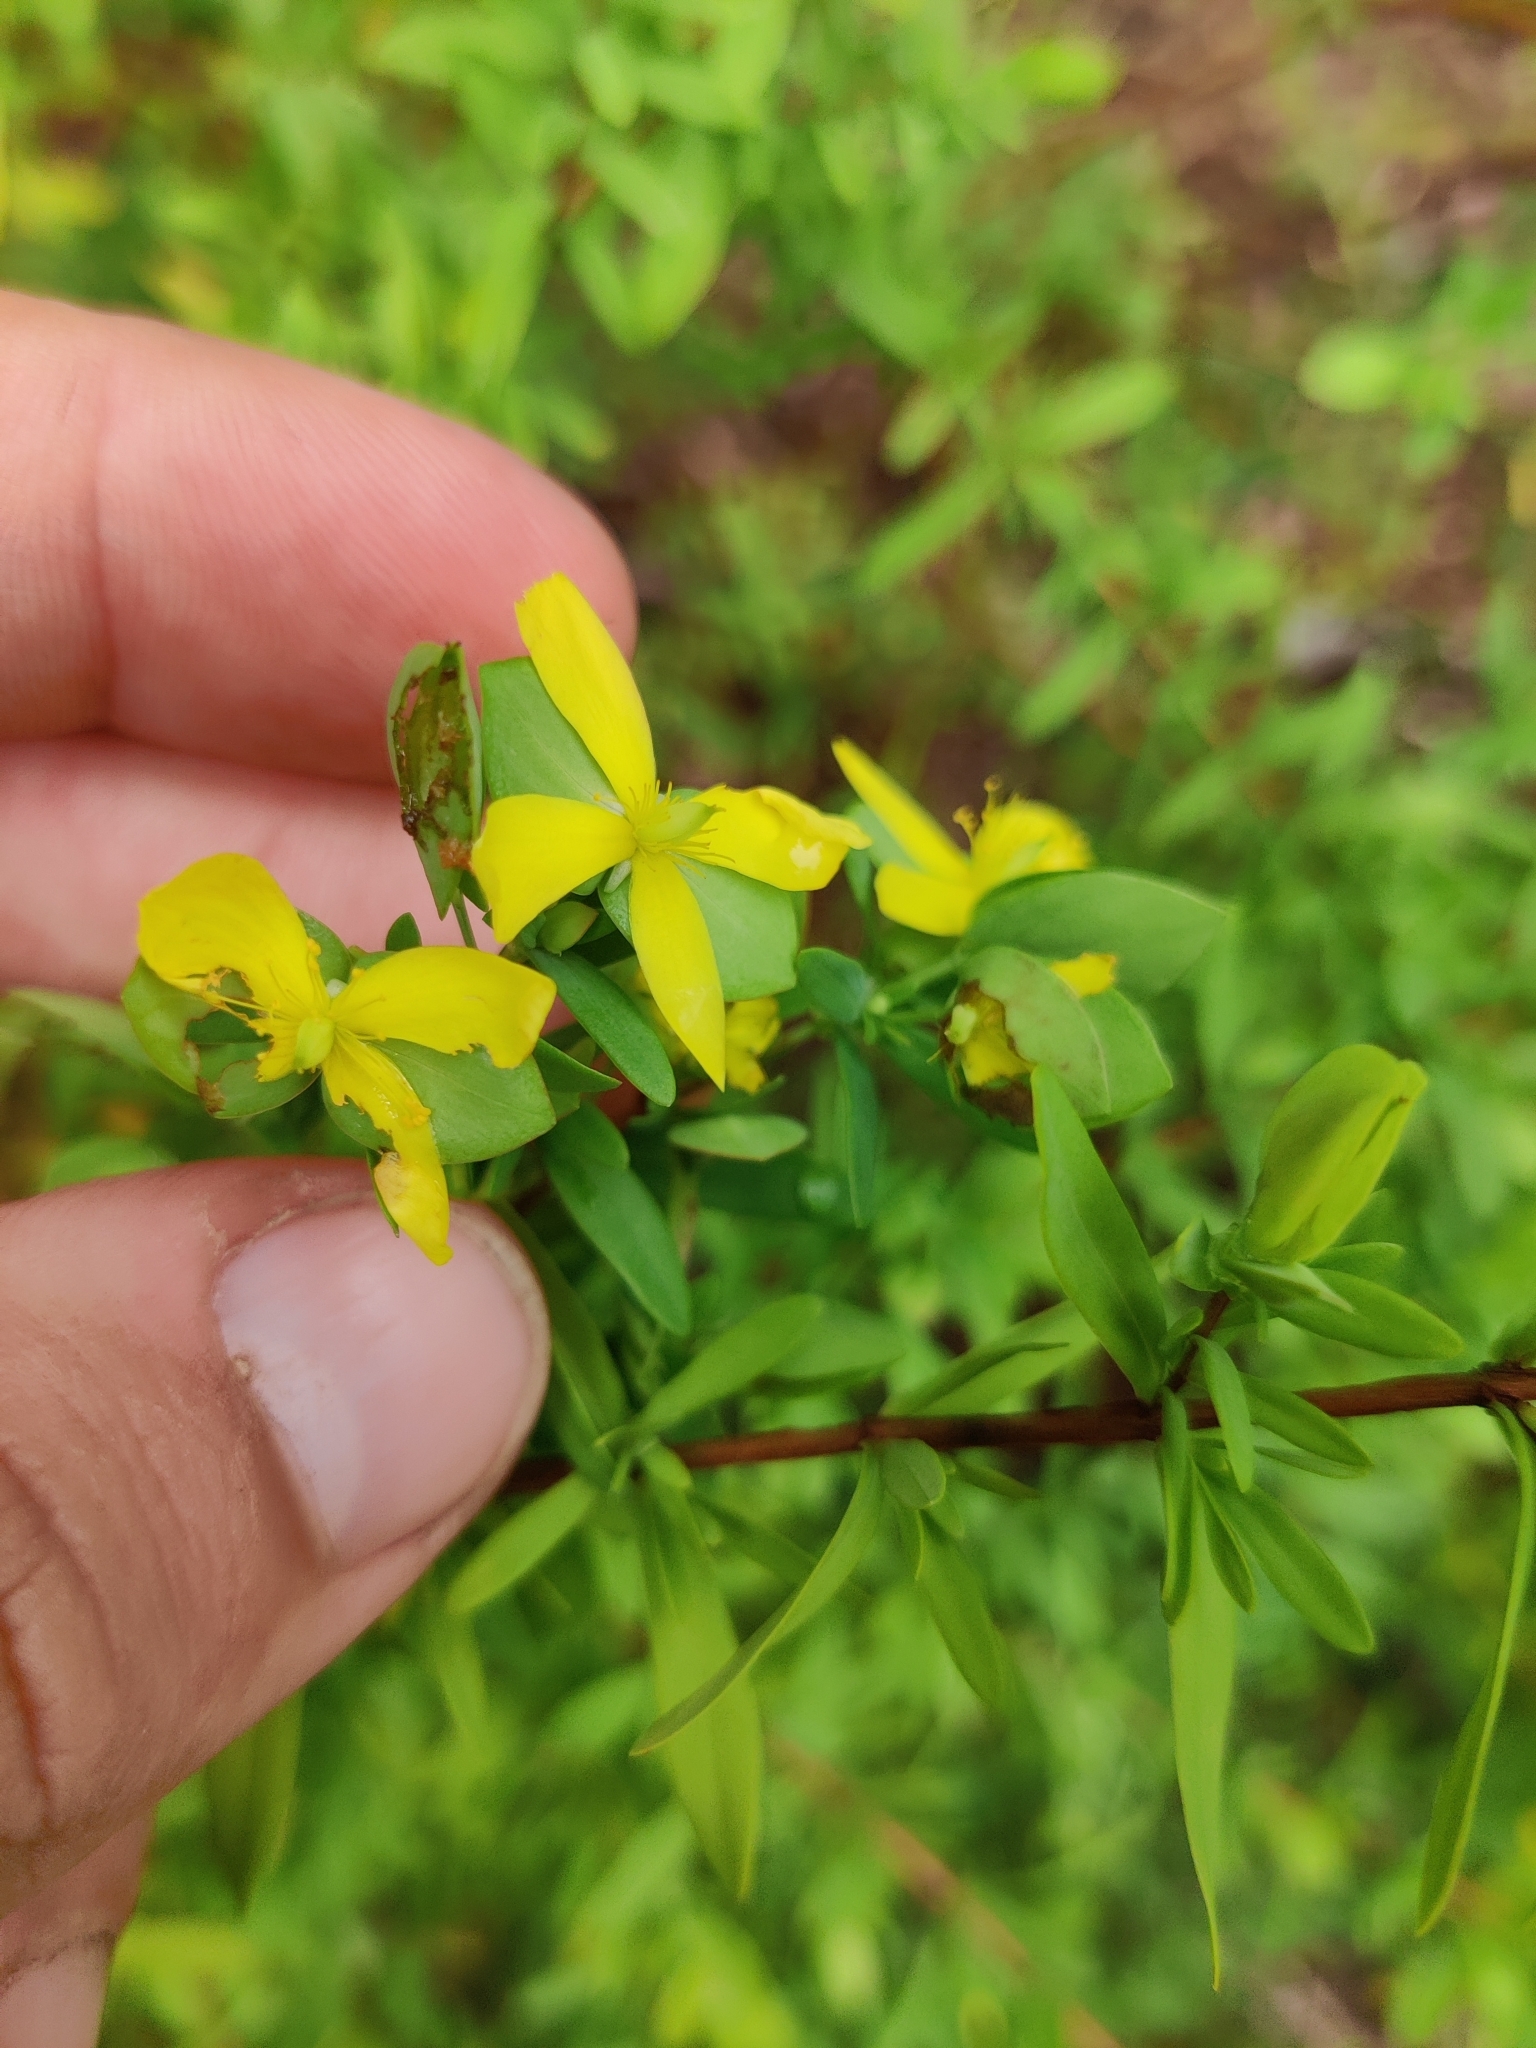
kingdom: Plantae
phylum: Tracheophyta
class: Magnoliopsida
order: Malpighiales
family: Hypericaceae
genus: Hypericum
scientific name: Hypericum hypericoides
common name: St. andrew's cross
